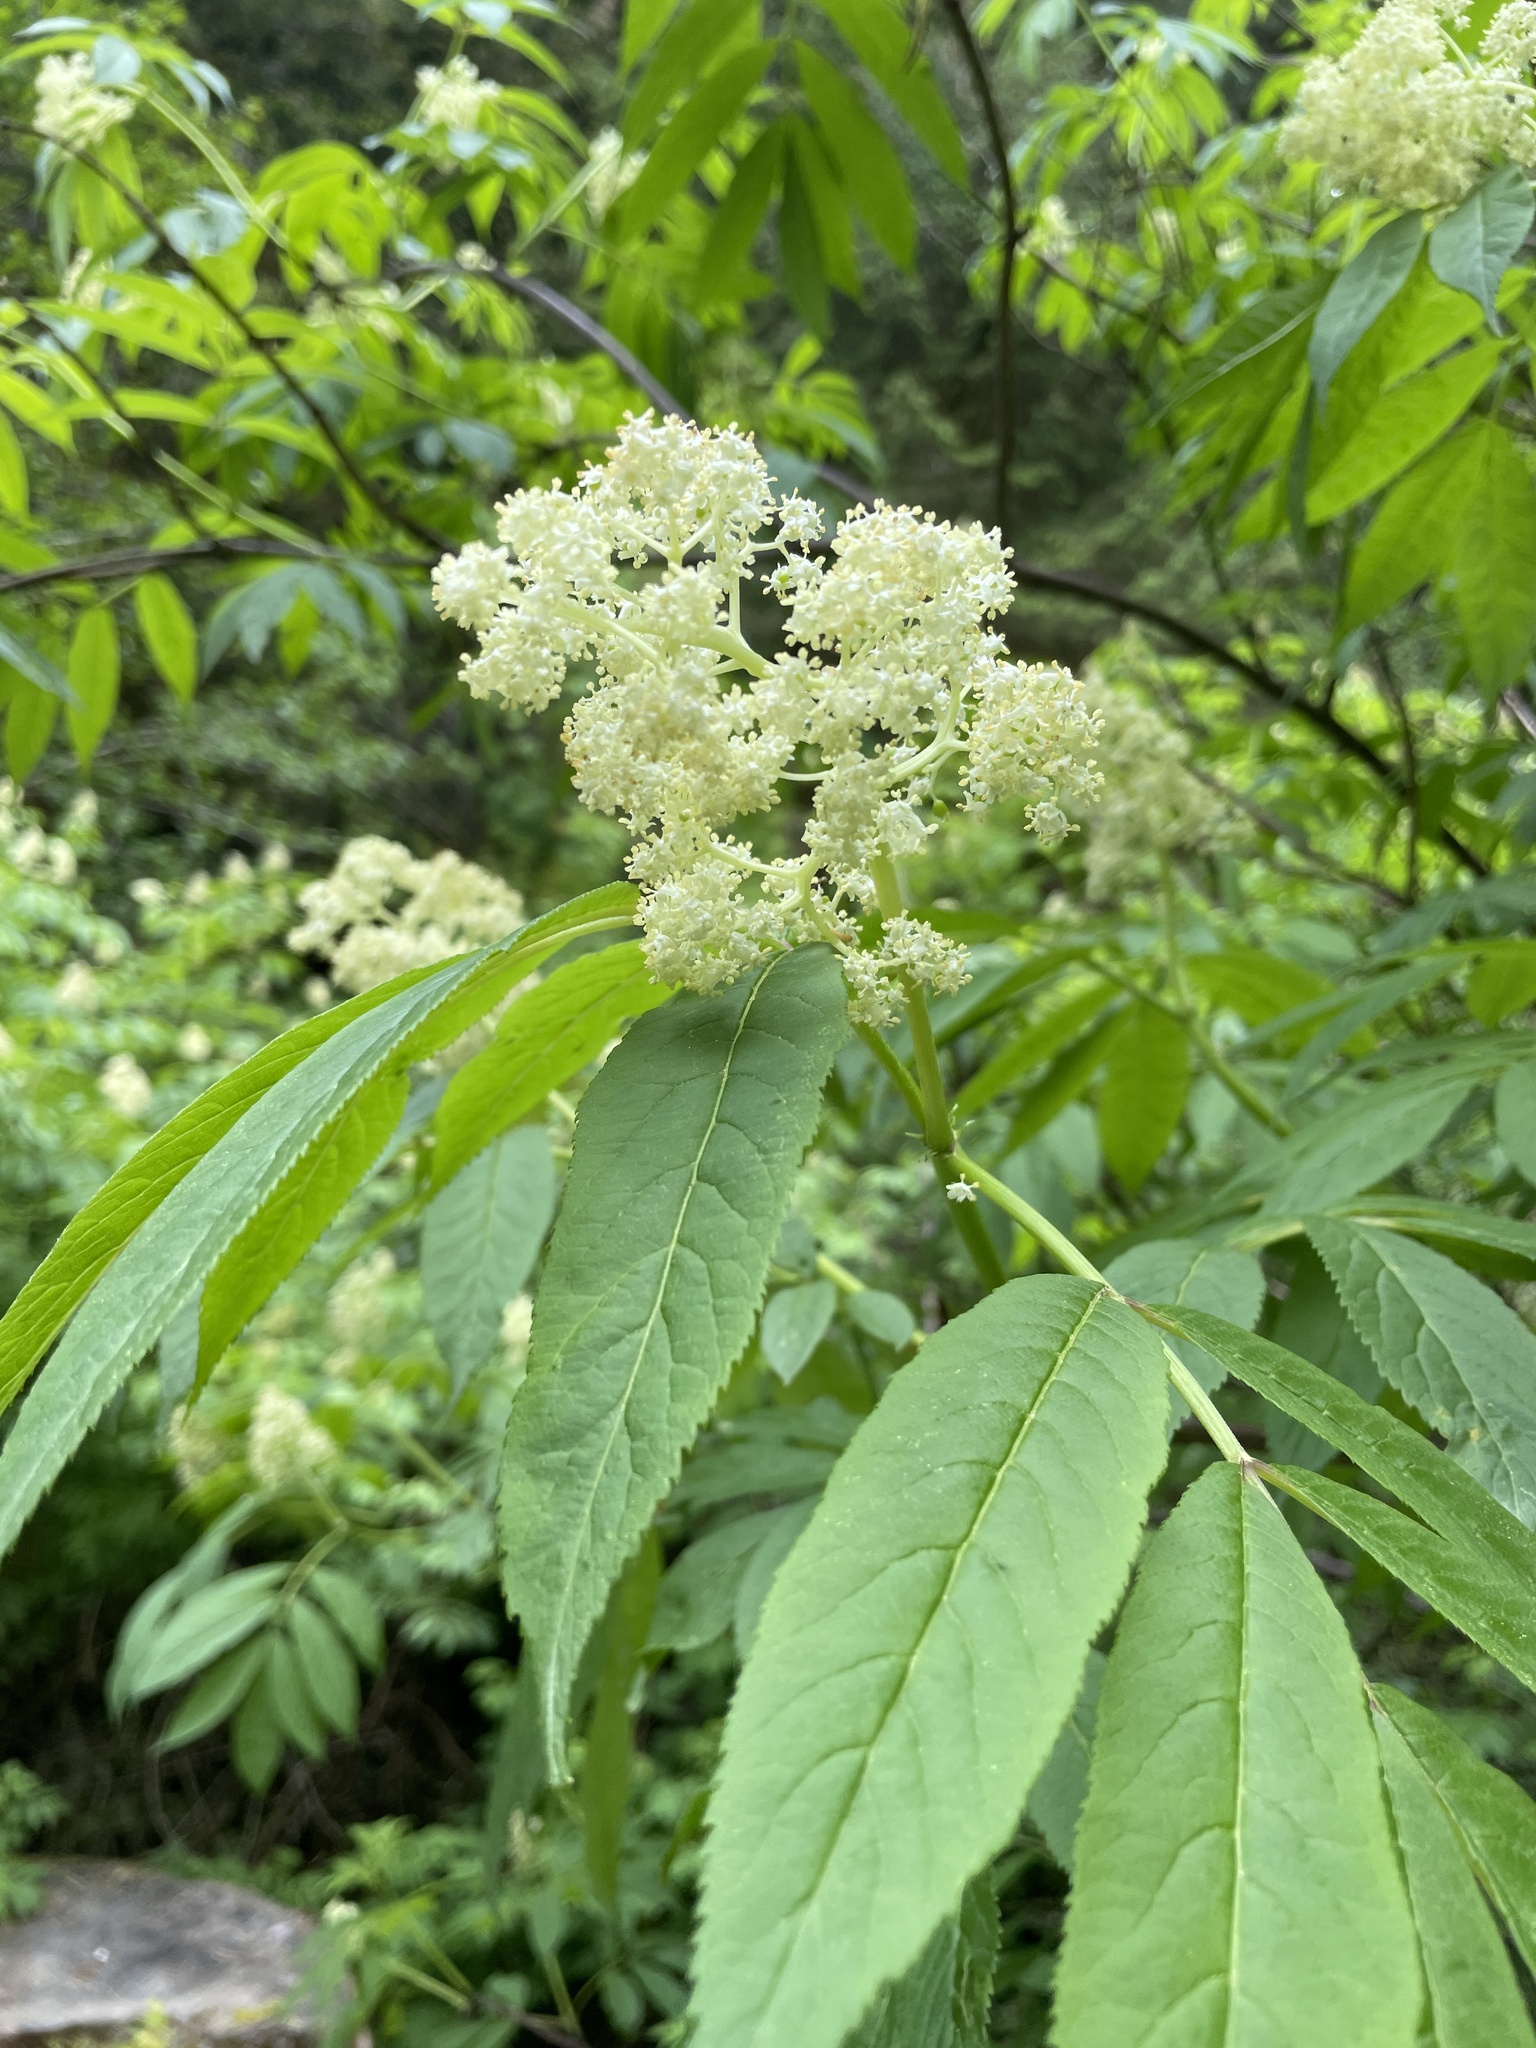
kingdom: Plantae
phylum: Tracheophyta
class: Magnoliopsida
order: Dipsacales
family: Viburnaceae
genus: Sambucus
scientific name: Sambucus racemosa
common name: Red-berried elder
